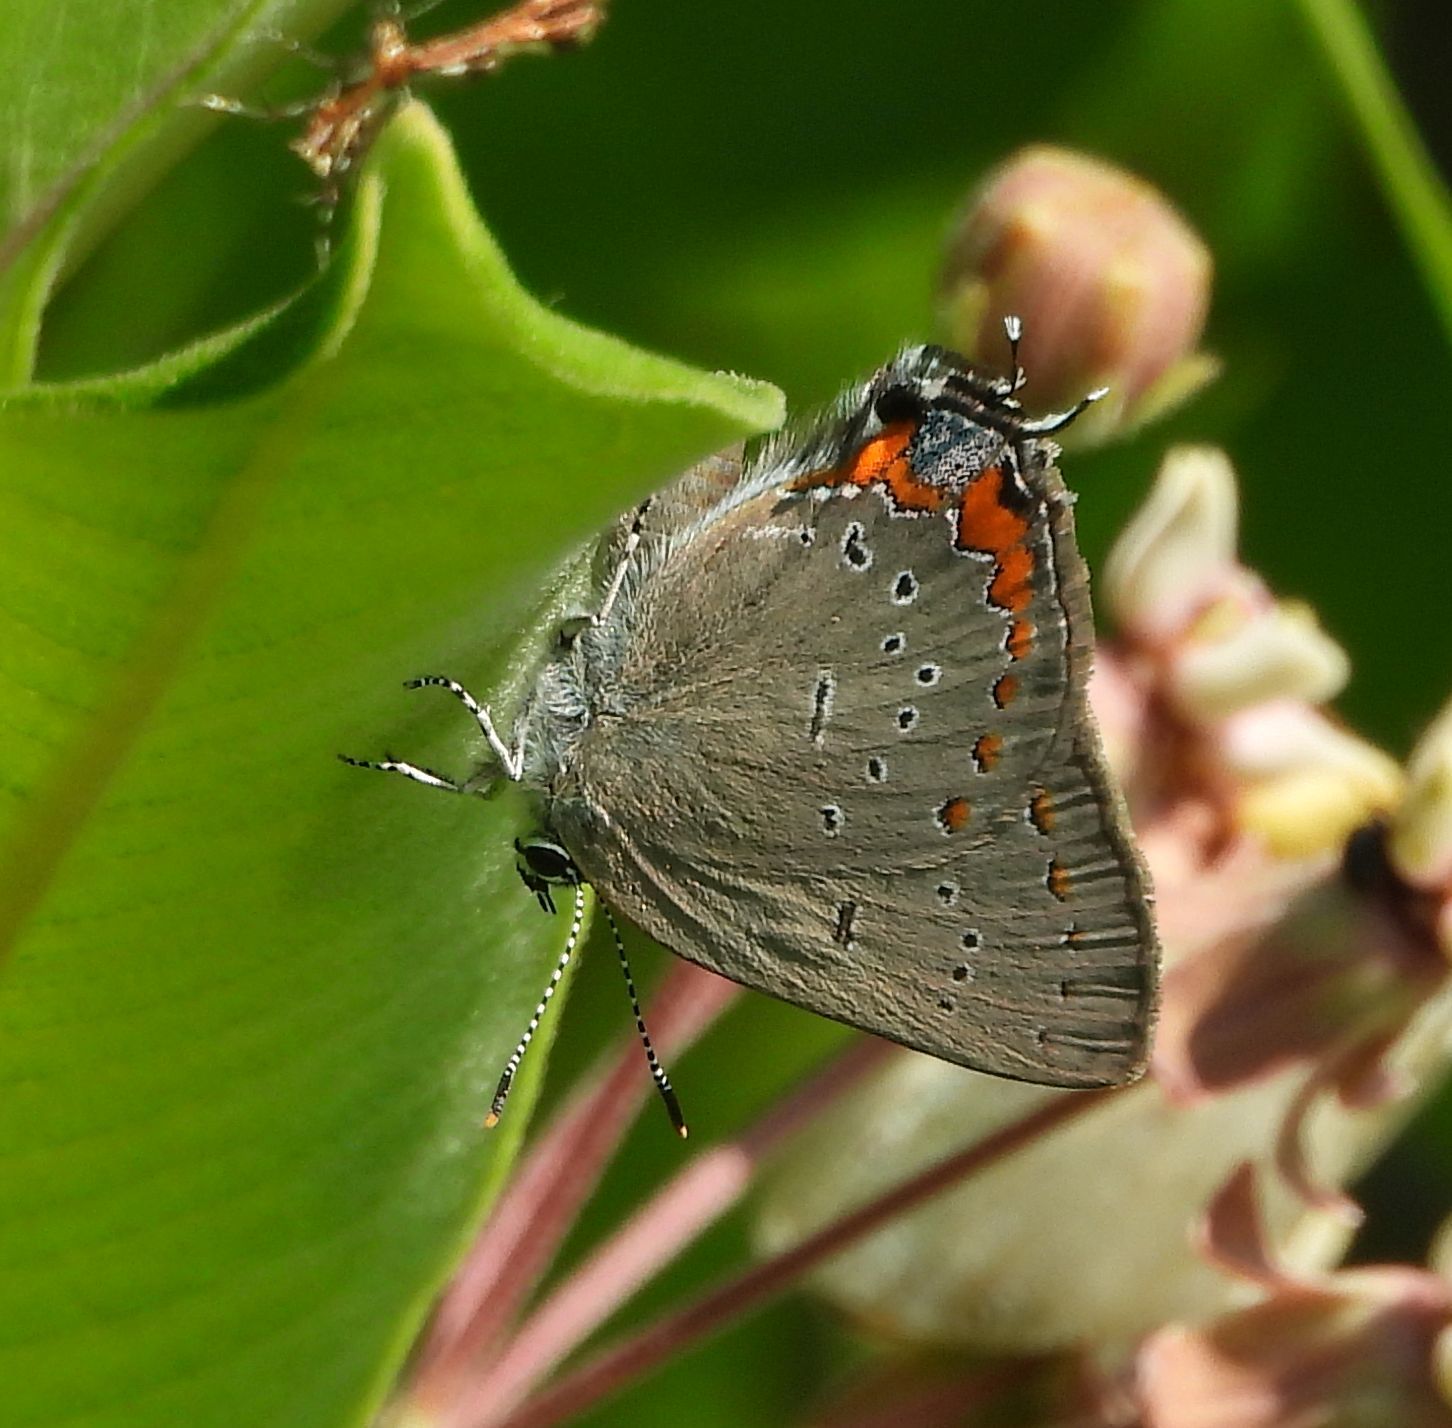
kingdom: Animalia
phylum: Arthropoda
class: Insecta
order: Lepidoptera
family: Lycaenidae
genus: Strymon
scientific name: Strymon acadica
